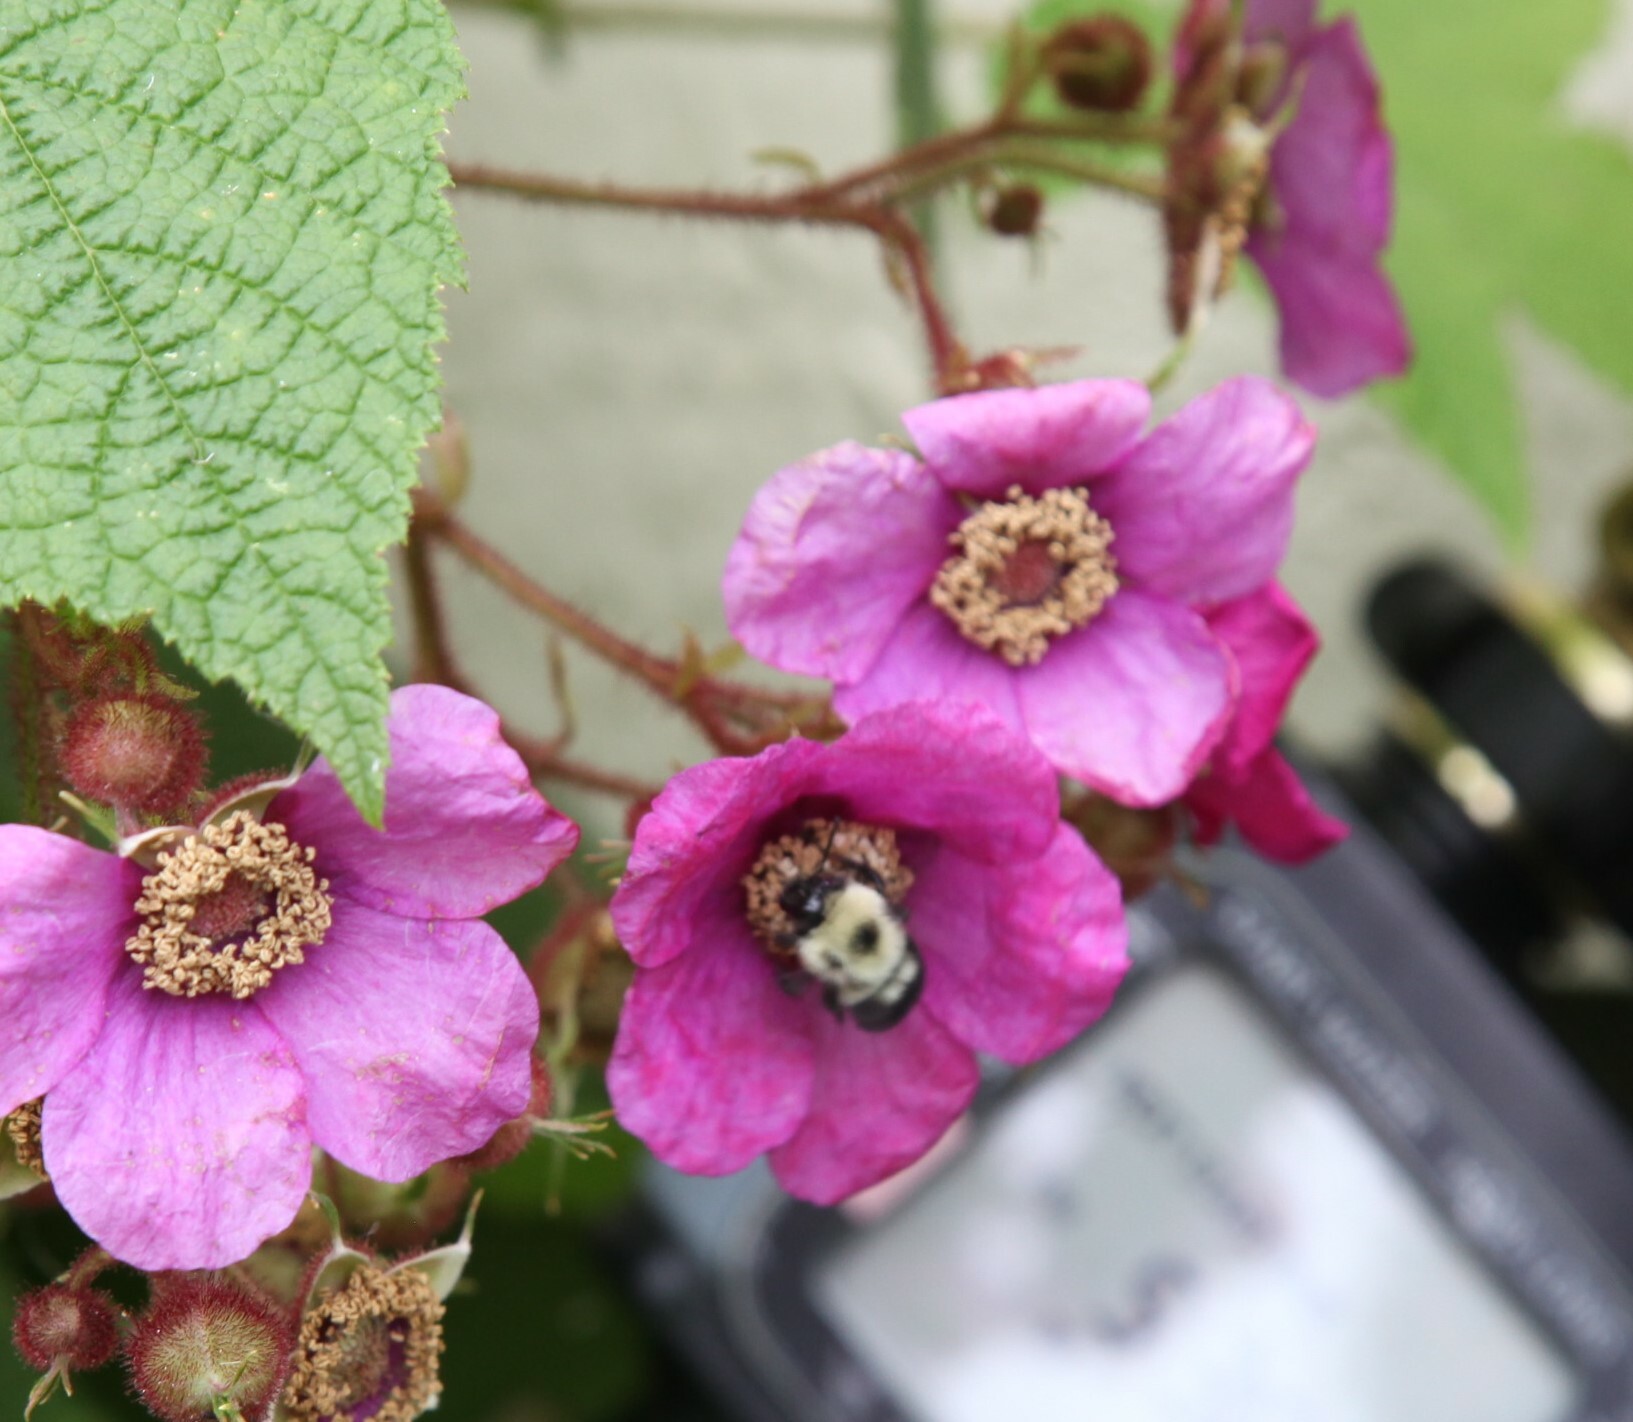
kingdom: Animalia
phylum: Arthropoda
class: Insecta
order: Hymenoptera
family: Apidae
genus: Bombus
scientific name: Bombus bimaculatus
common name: Two-spotted bumble bee
